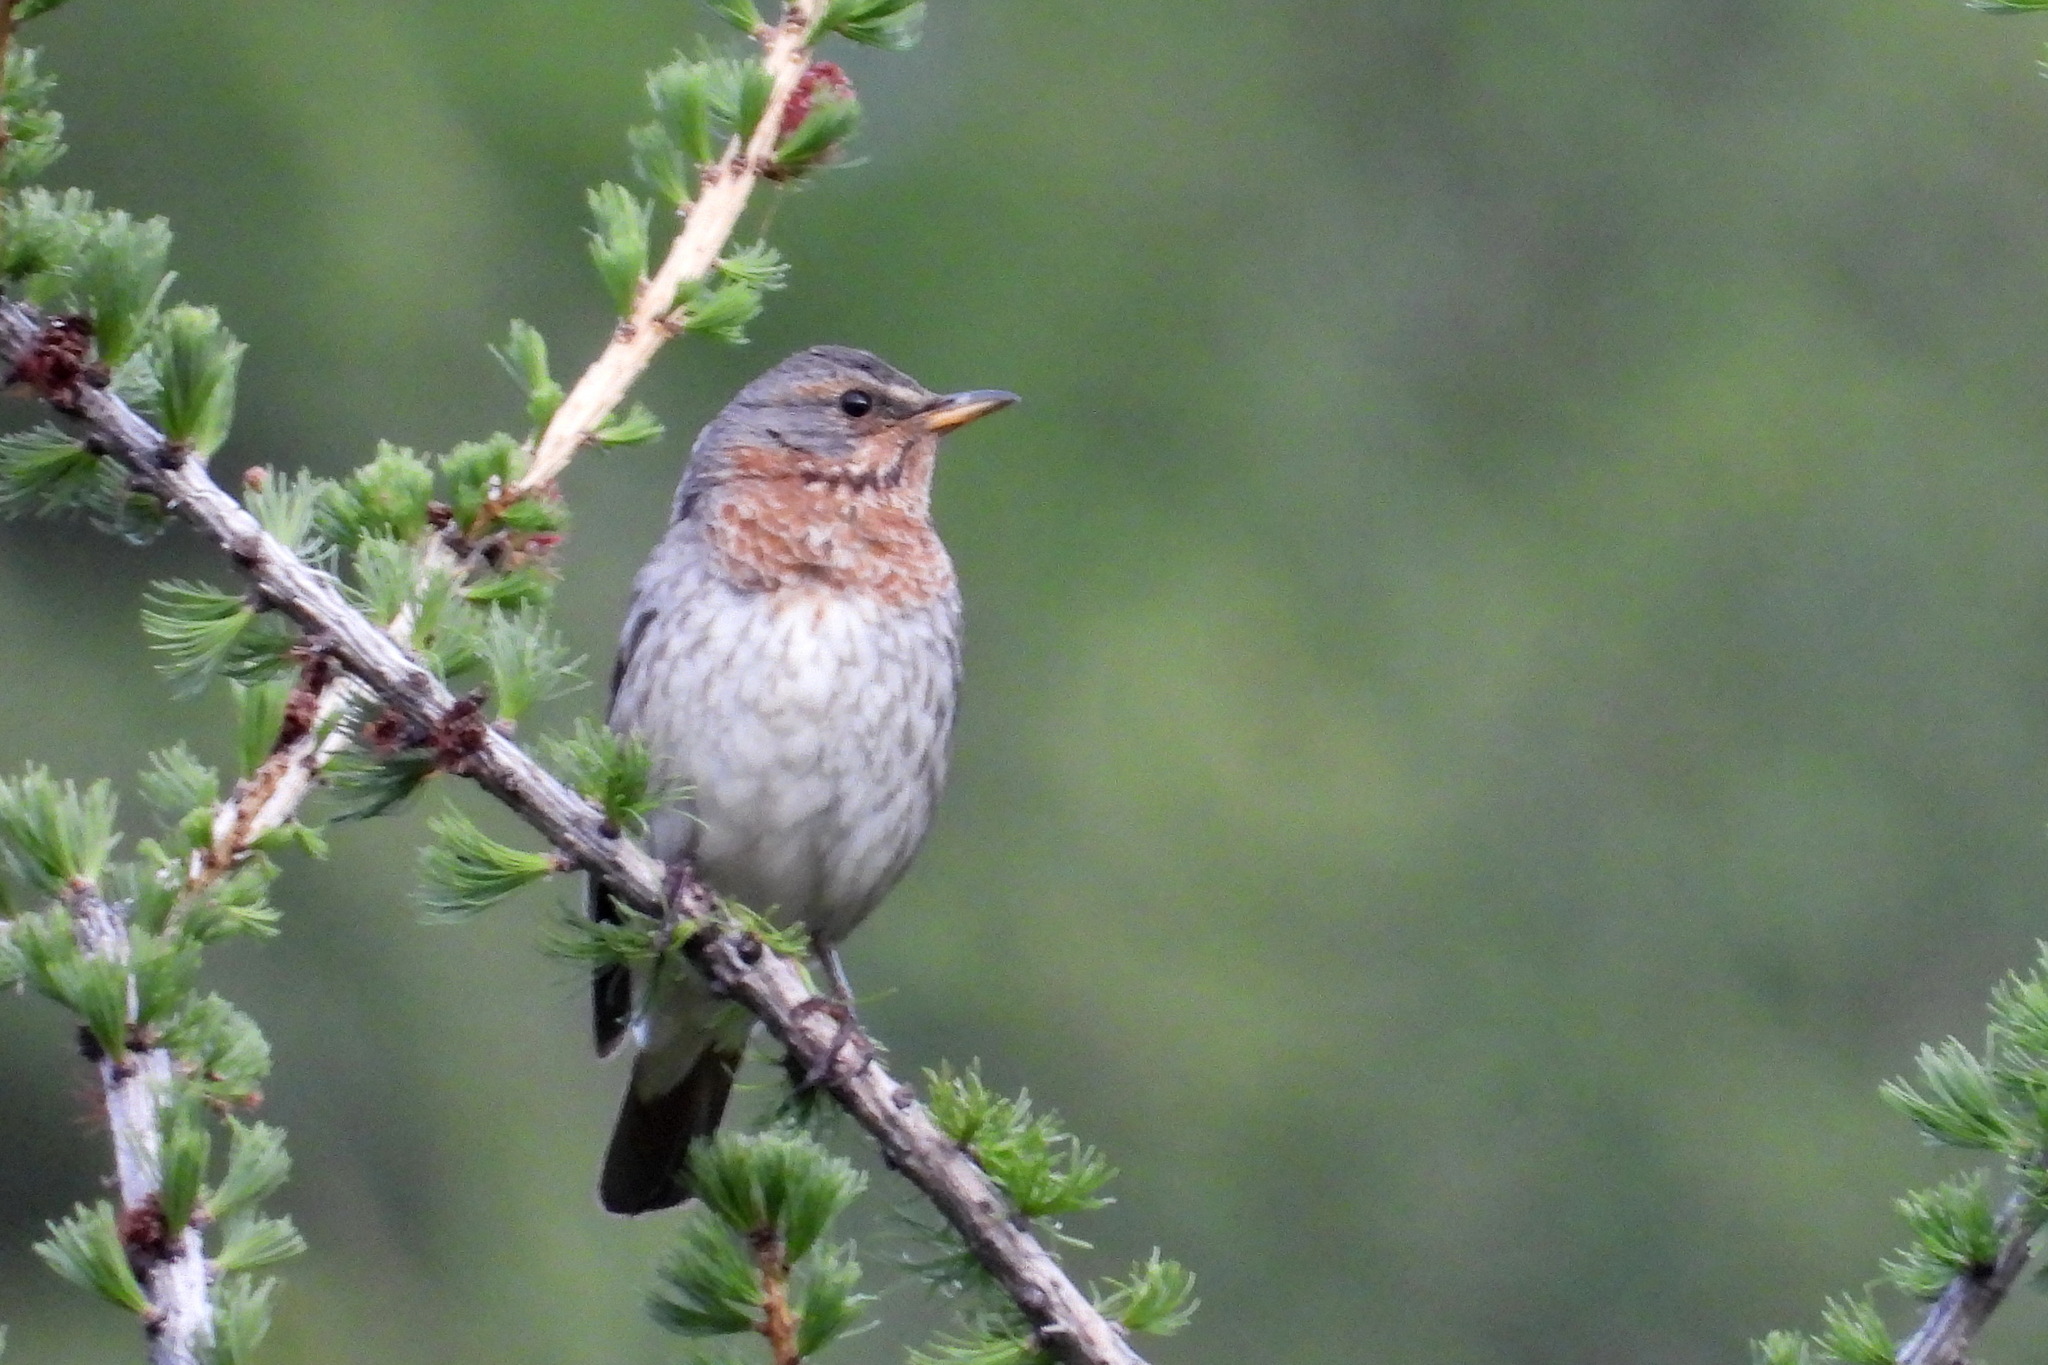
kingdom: Animalia
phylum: Chordata
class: Aves
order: Passeriformes
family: Turdidae
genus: Turdus
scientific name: Turdus ruficollis
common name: Red-throated thrush
